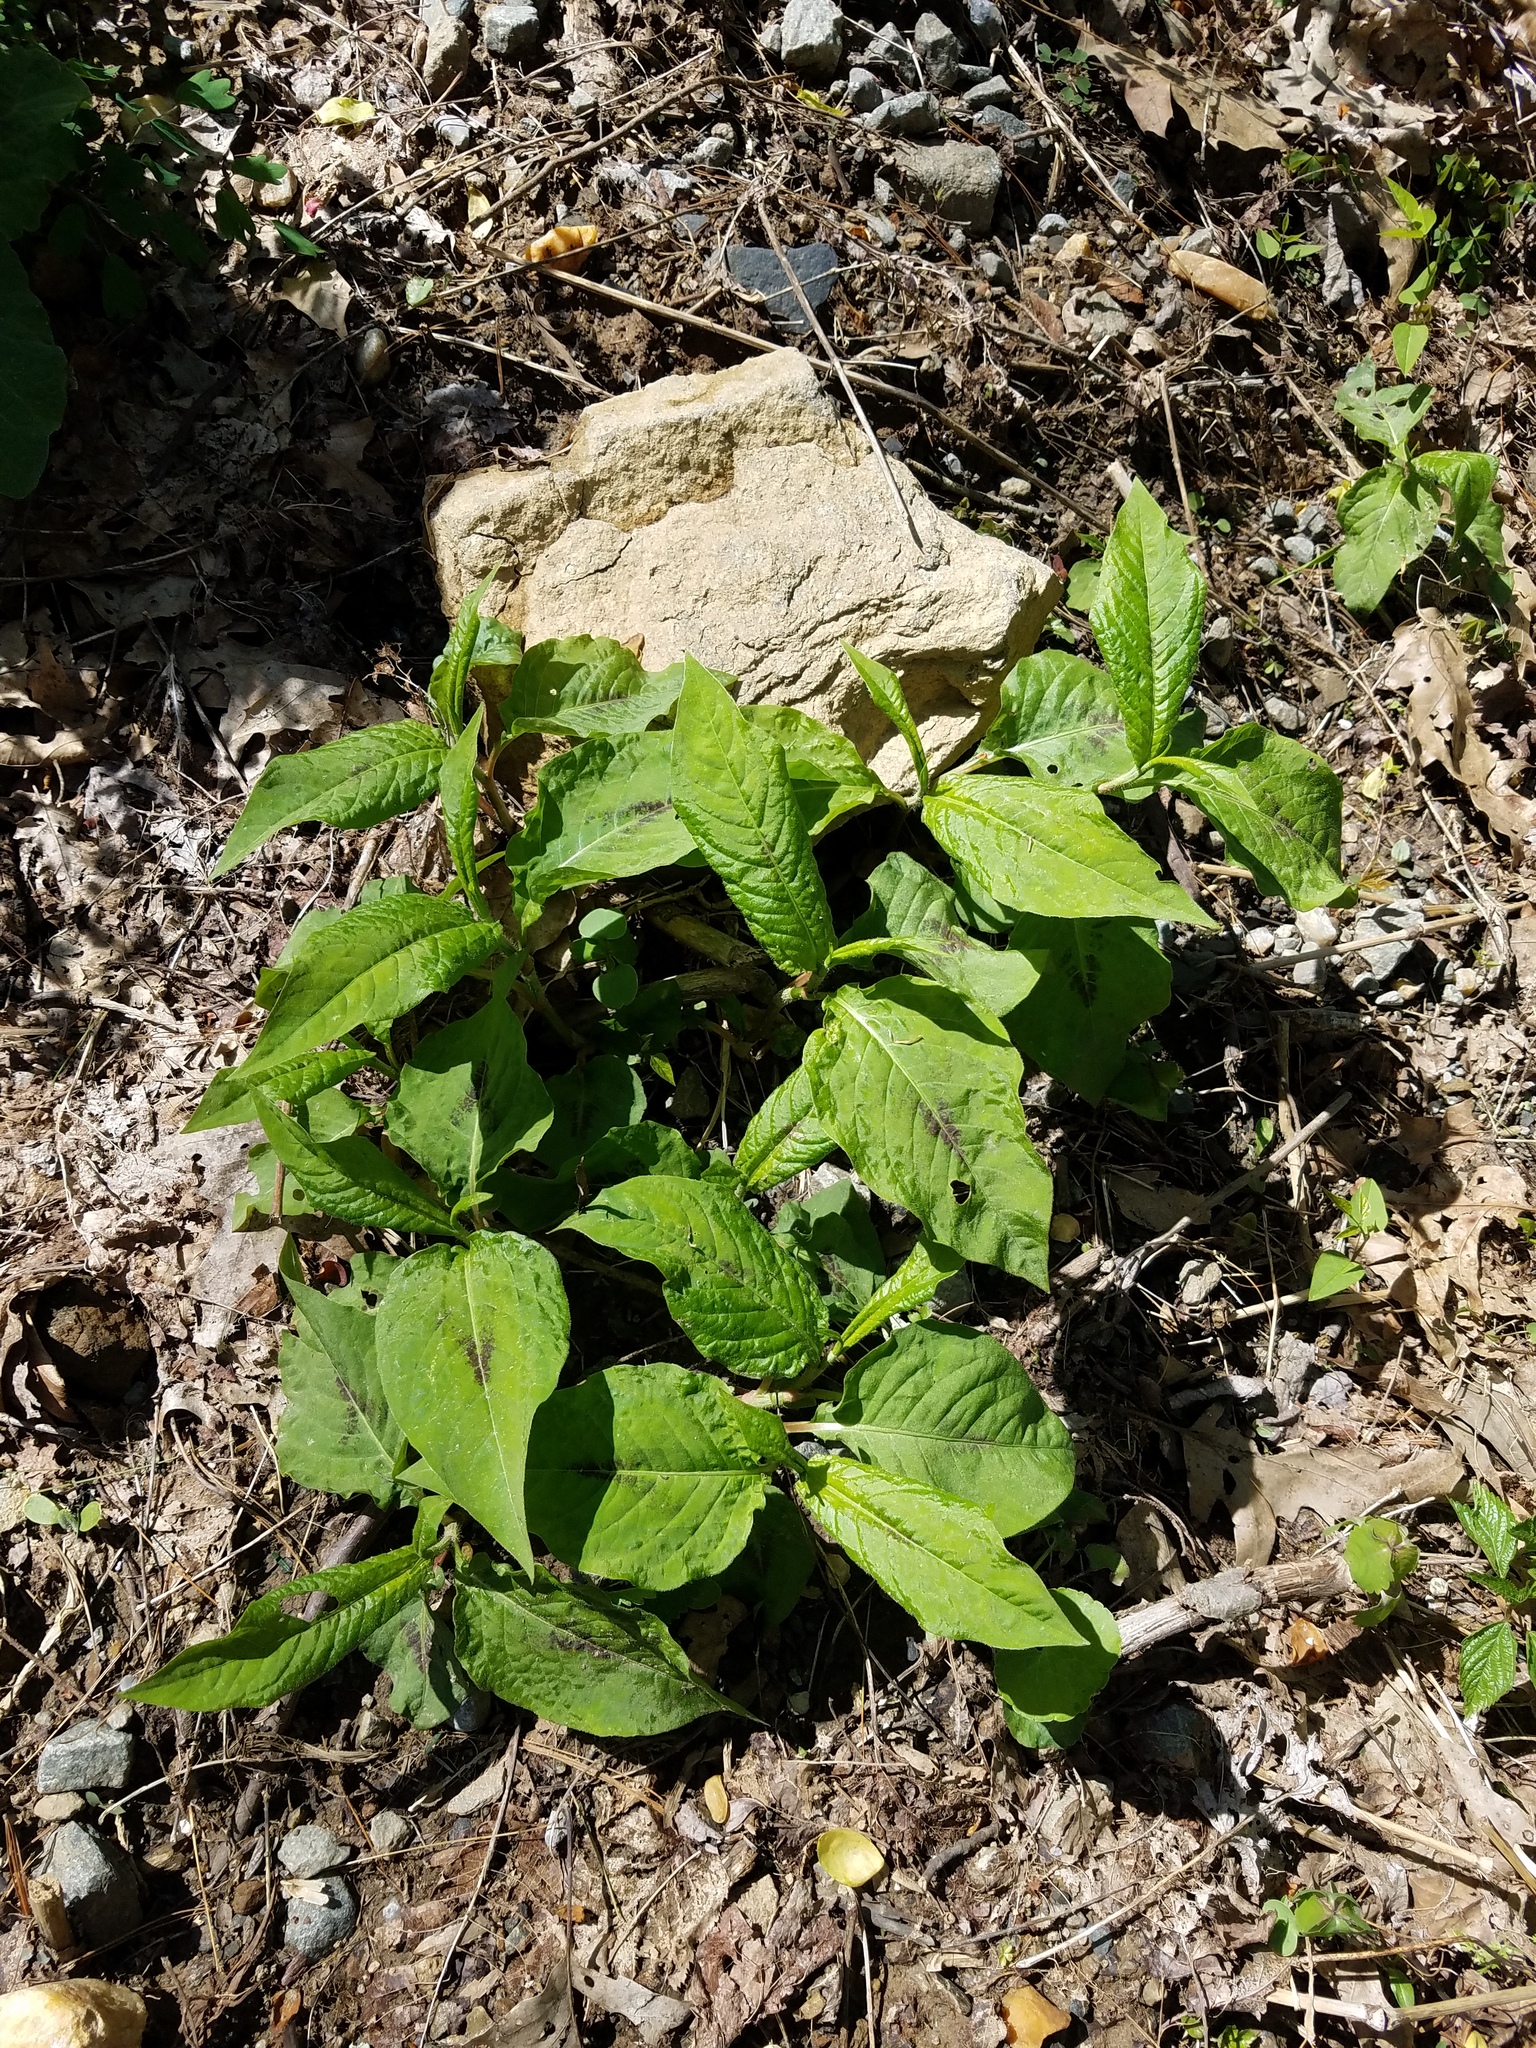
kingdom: Plantae
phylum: Tracheophyta
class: Magnoliopsida
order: Caryophyllales
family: Polygonaceae
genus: Persicaria
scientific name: Persicaria virginiana
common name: Jumpseed
